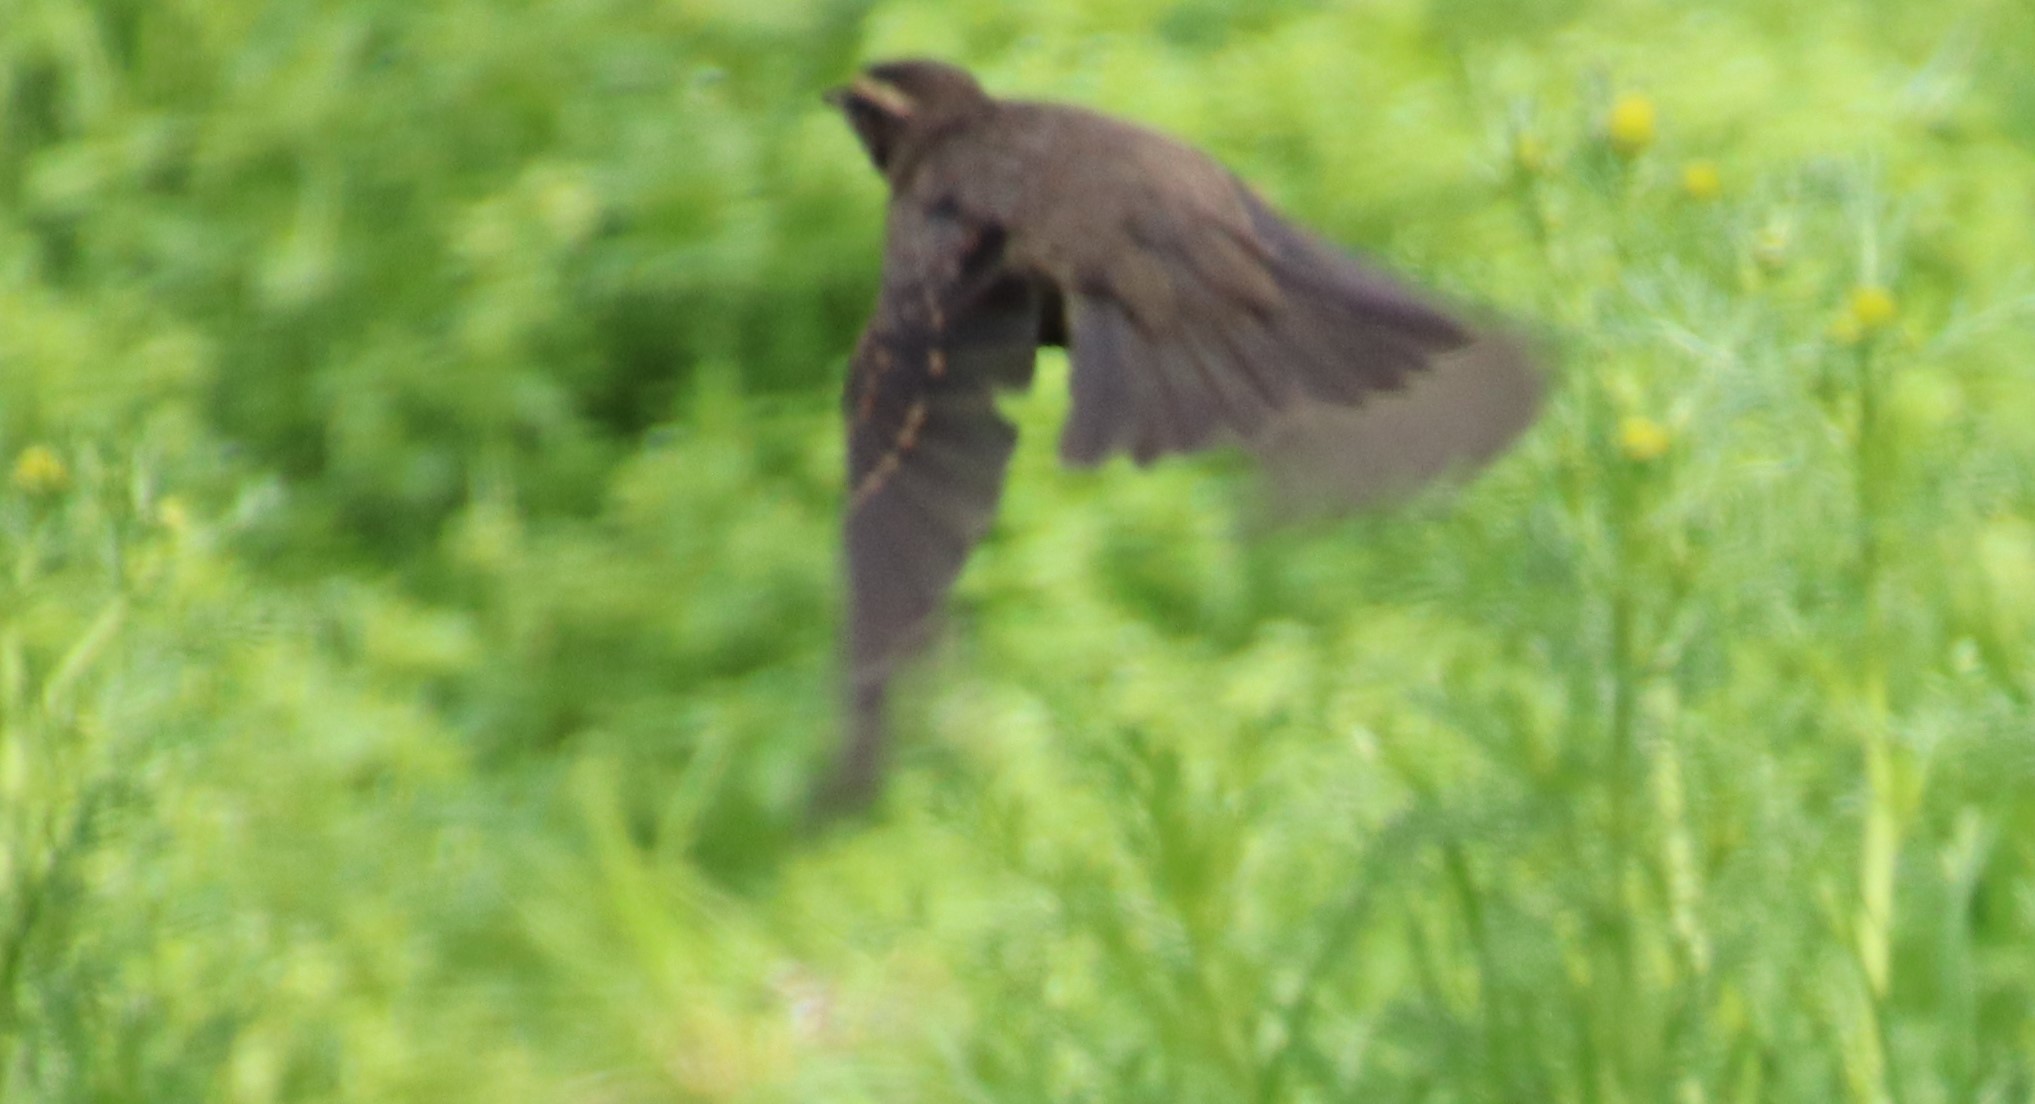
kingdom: Animalia
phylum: Chordata
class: Aves
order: Passeriformes
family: Turdidae
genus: Turdus
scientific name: Turdus iliacus
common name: Redwing
